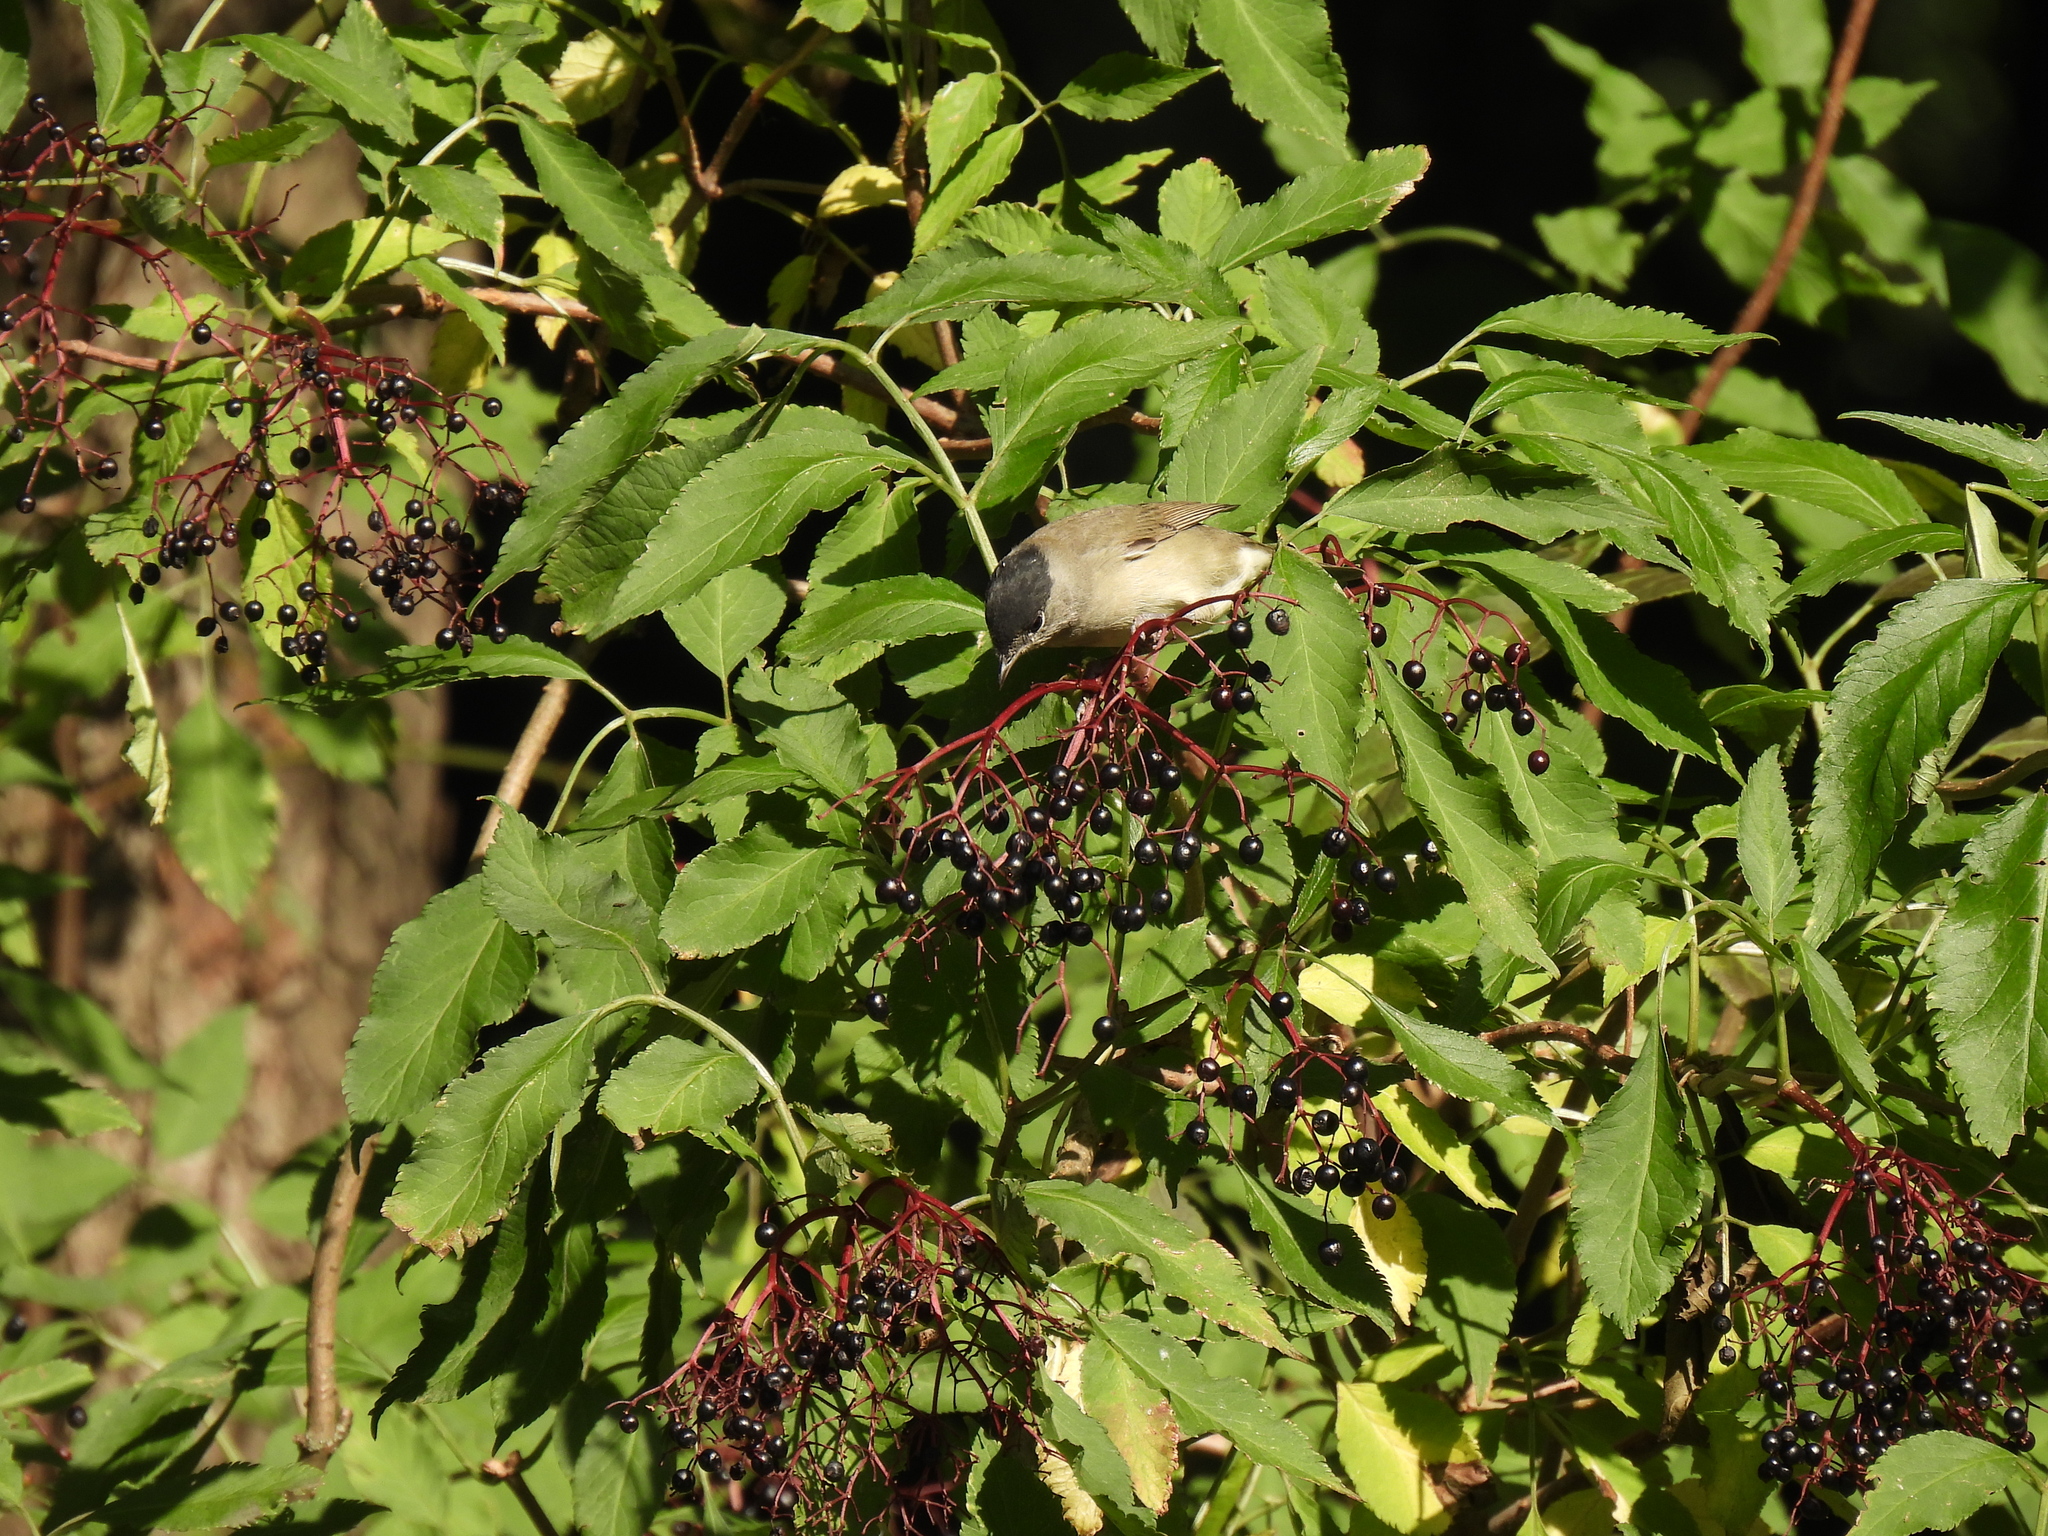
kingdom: Animalia
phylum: Chordata
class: Aves
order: Passeriformes
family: Sylviidae
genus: Sylvia
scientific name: Sylvia atricapilla
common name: Eurasian blackcap
